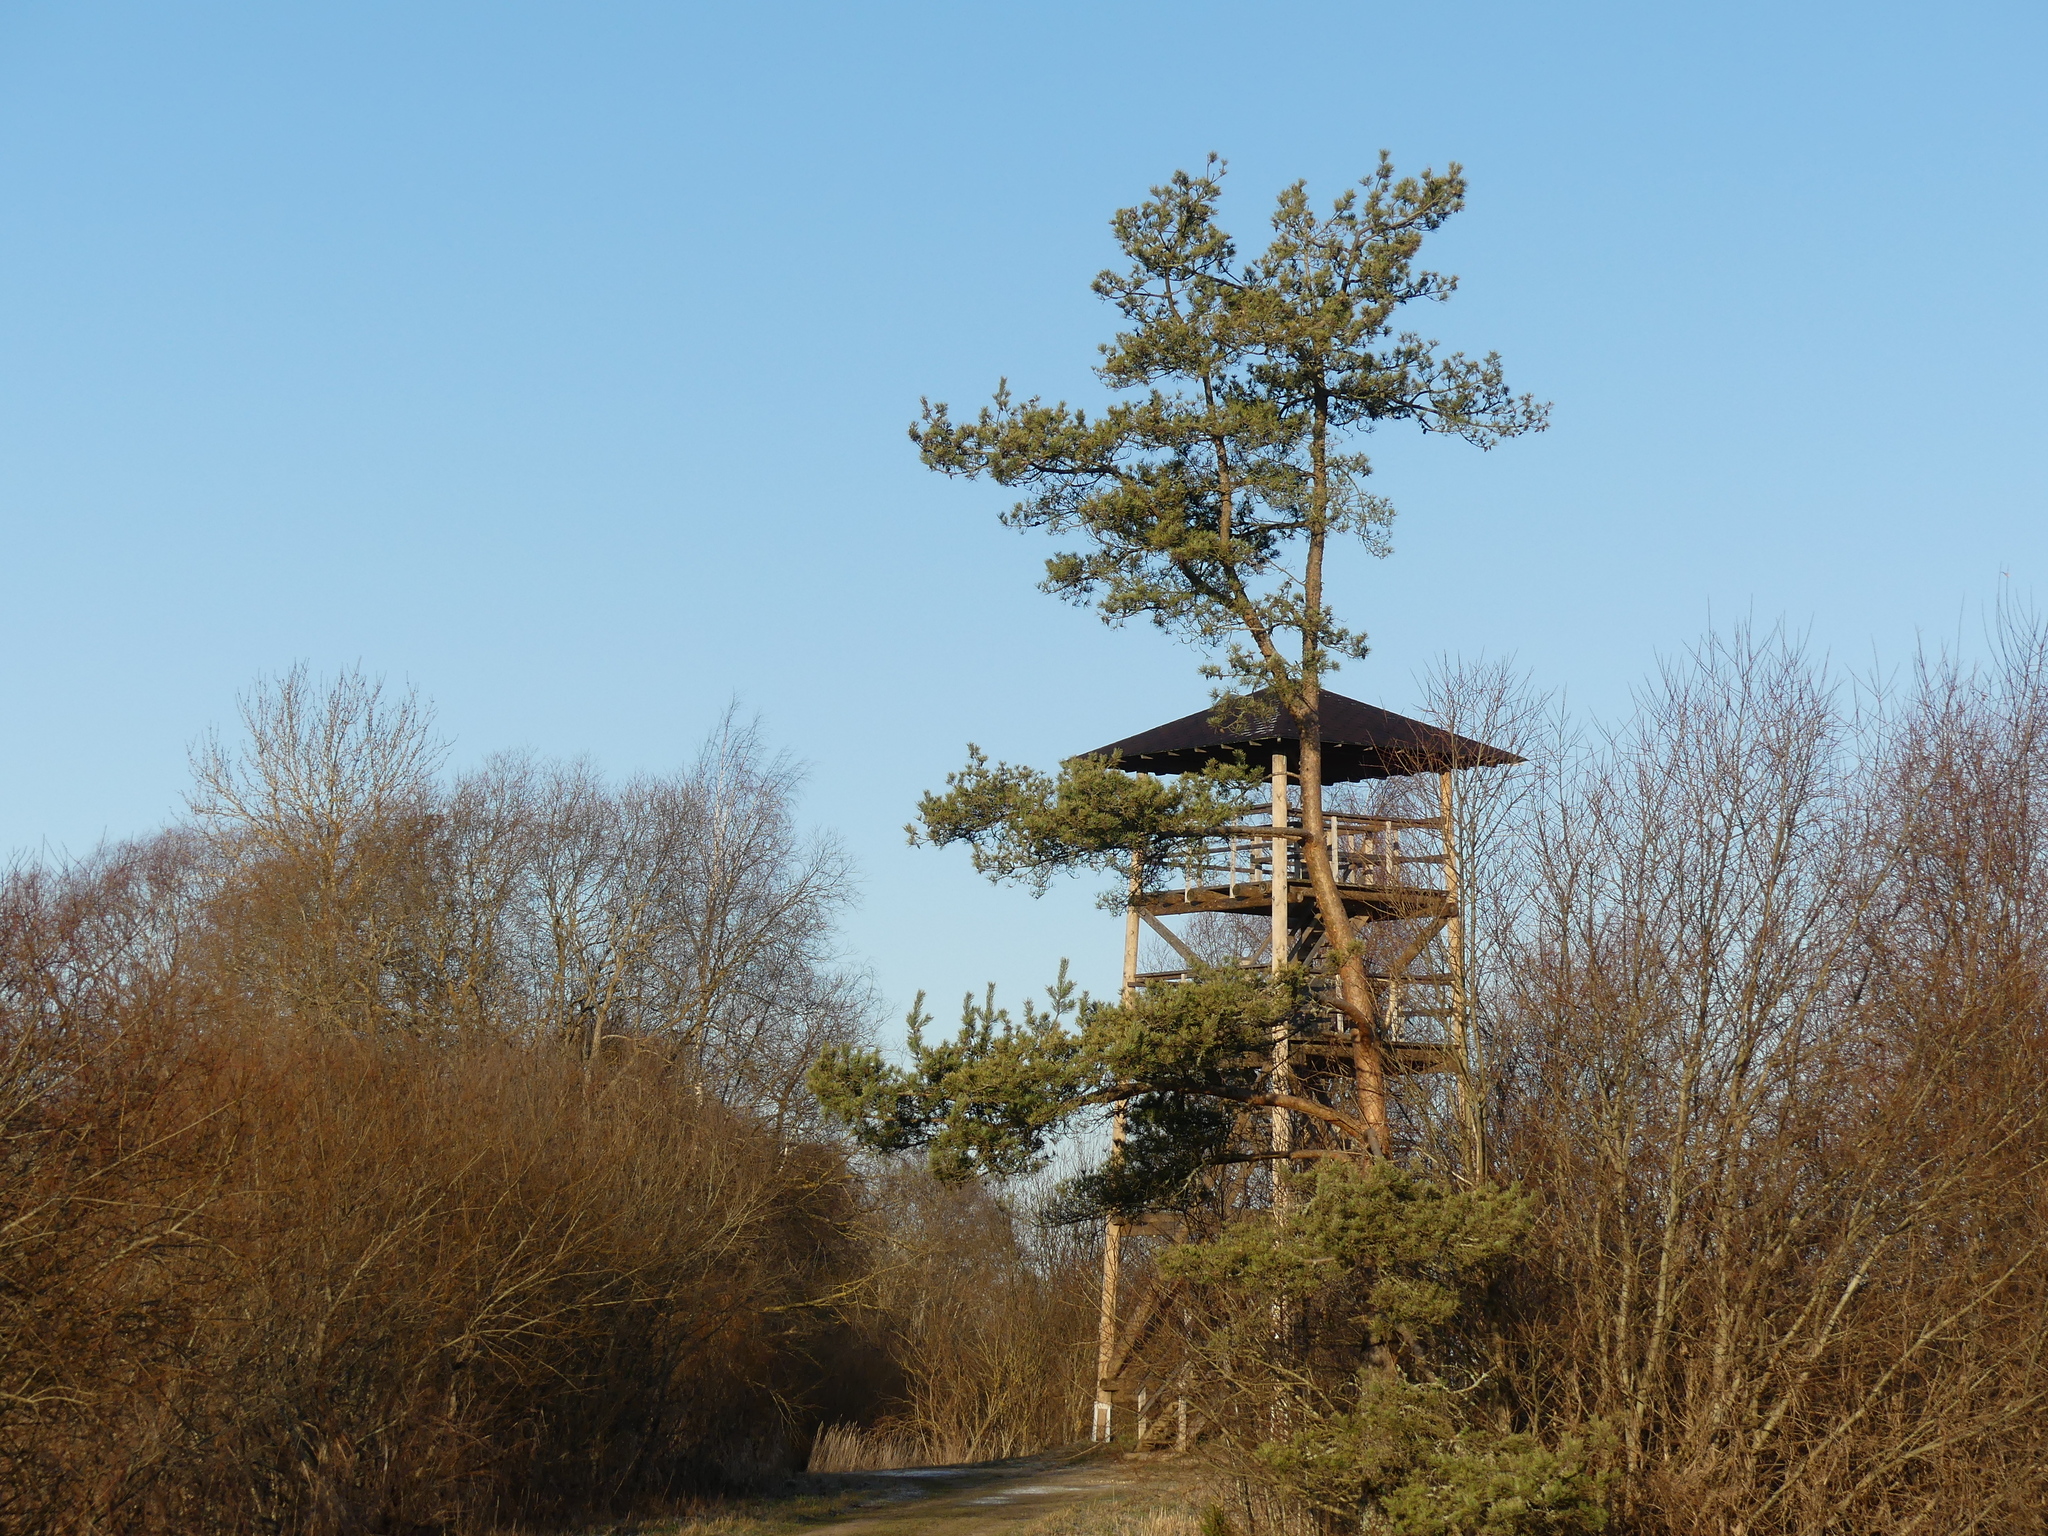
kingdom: Plantae
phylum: Tracheophyta
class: Pinopsida
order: Pinales
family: Pinaceae
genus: Pinus
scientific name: Pinus sylvestris
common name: Scots pine
